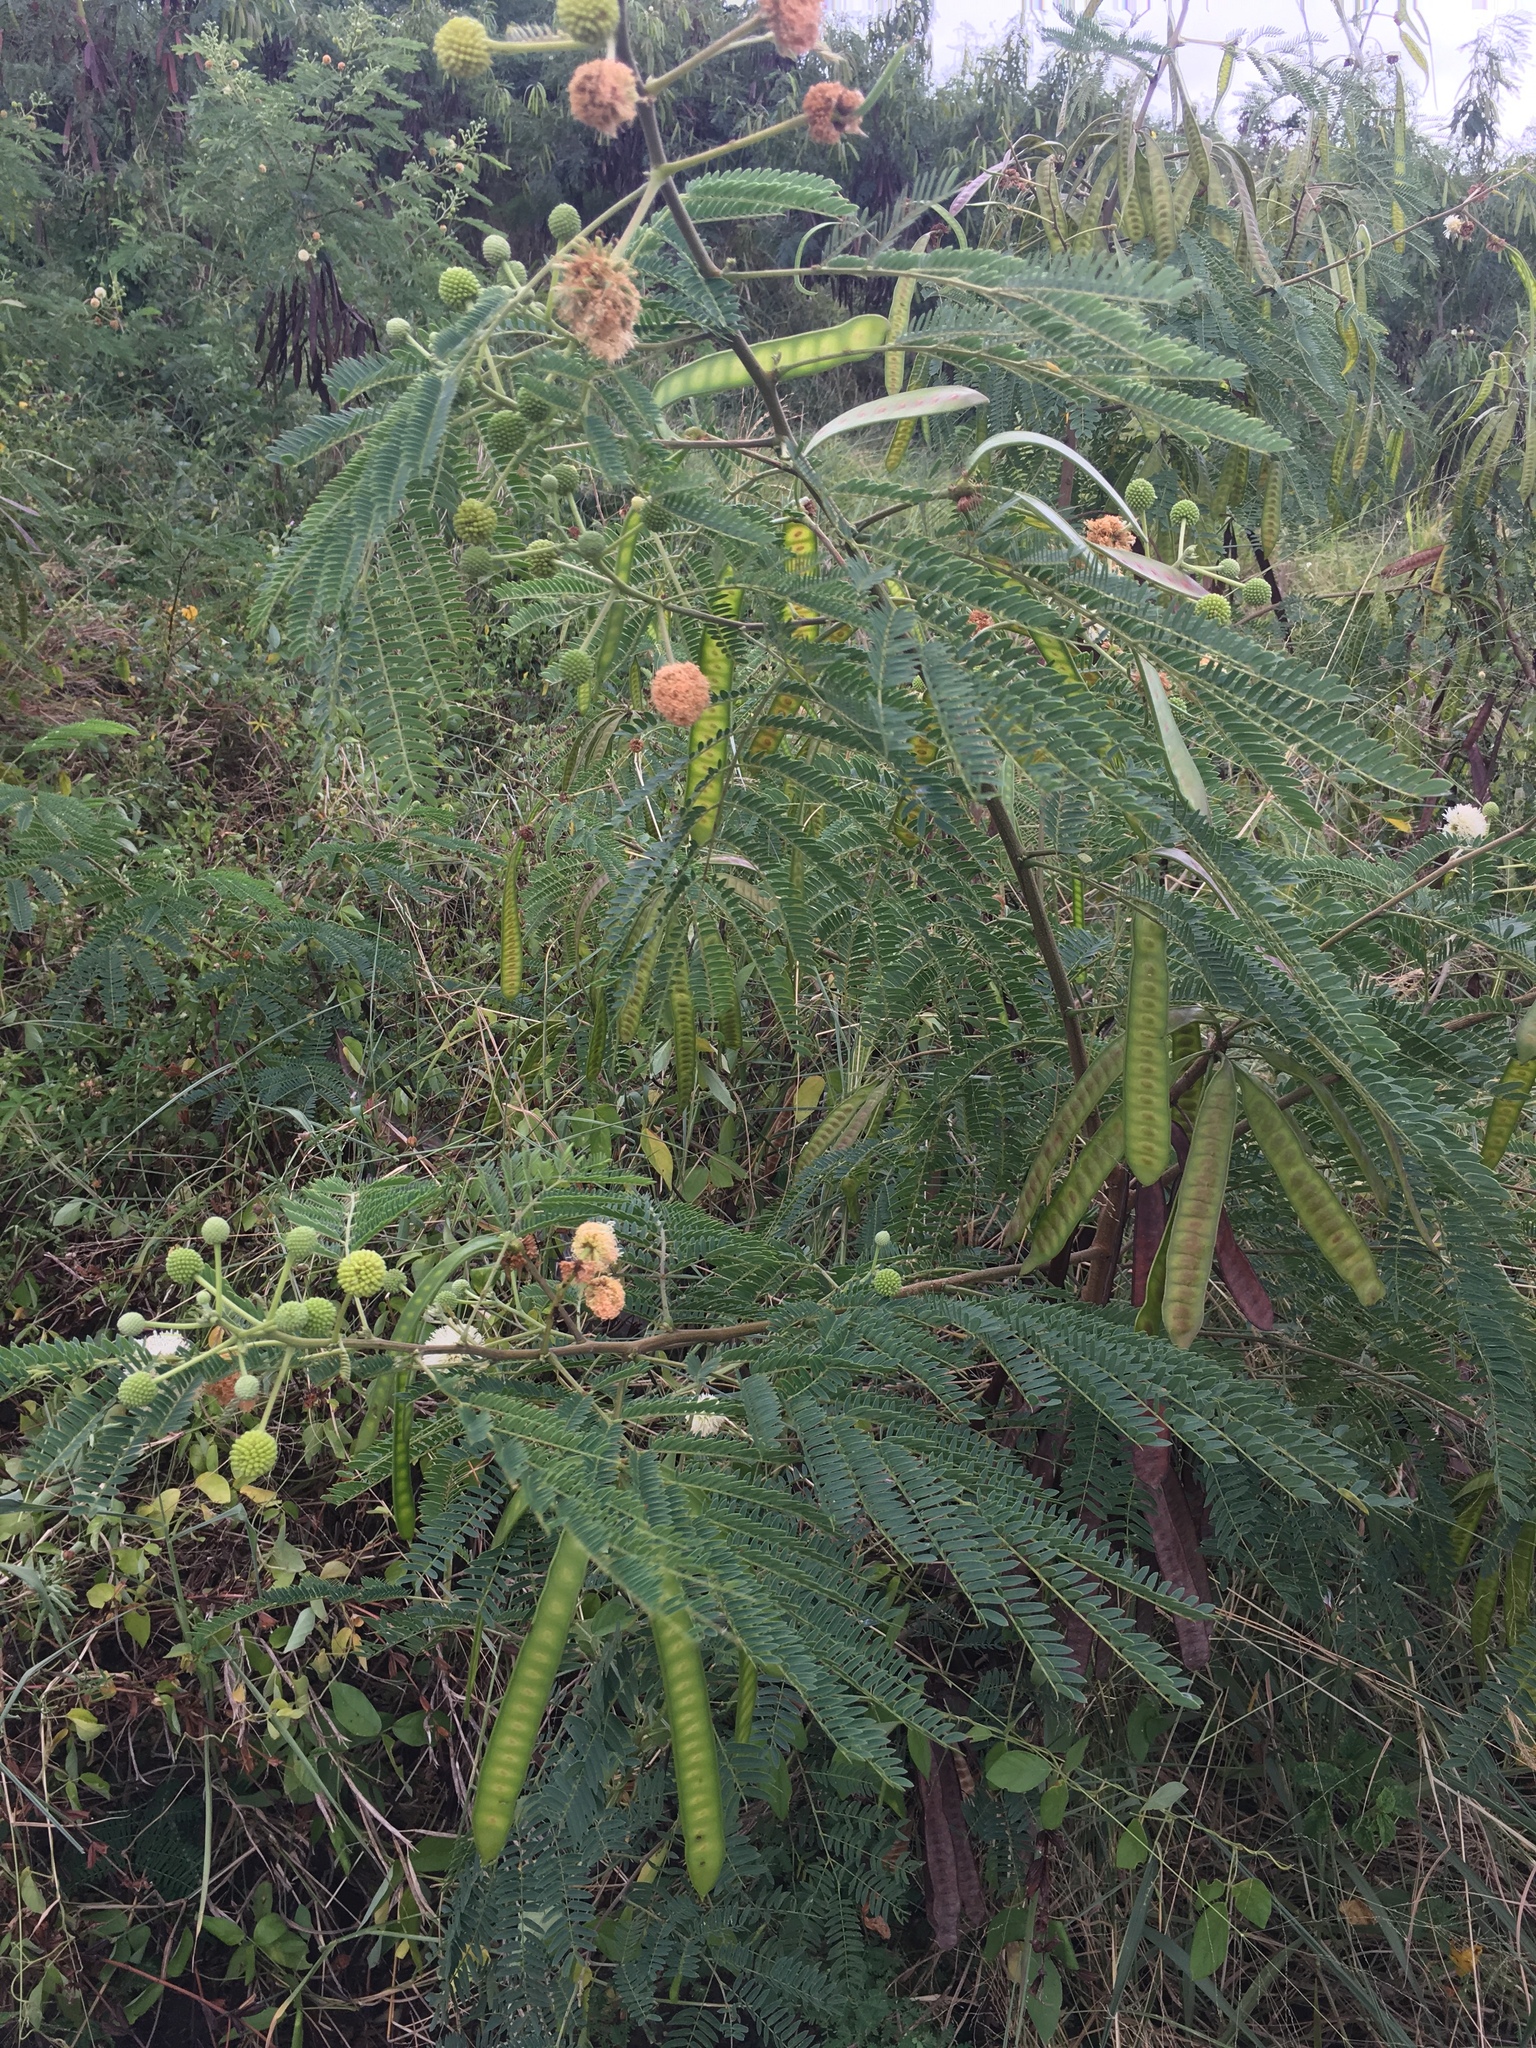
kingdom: Plantae
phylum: Tracheophyta
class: Magnoliopsida
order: Fabales
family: Fabaceae
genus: Leucaena
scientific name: Leucaena leucocephala
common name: White leadtree
